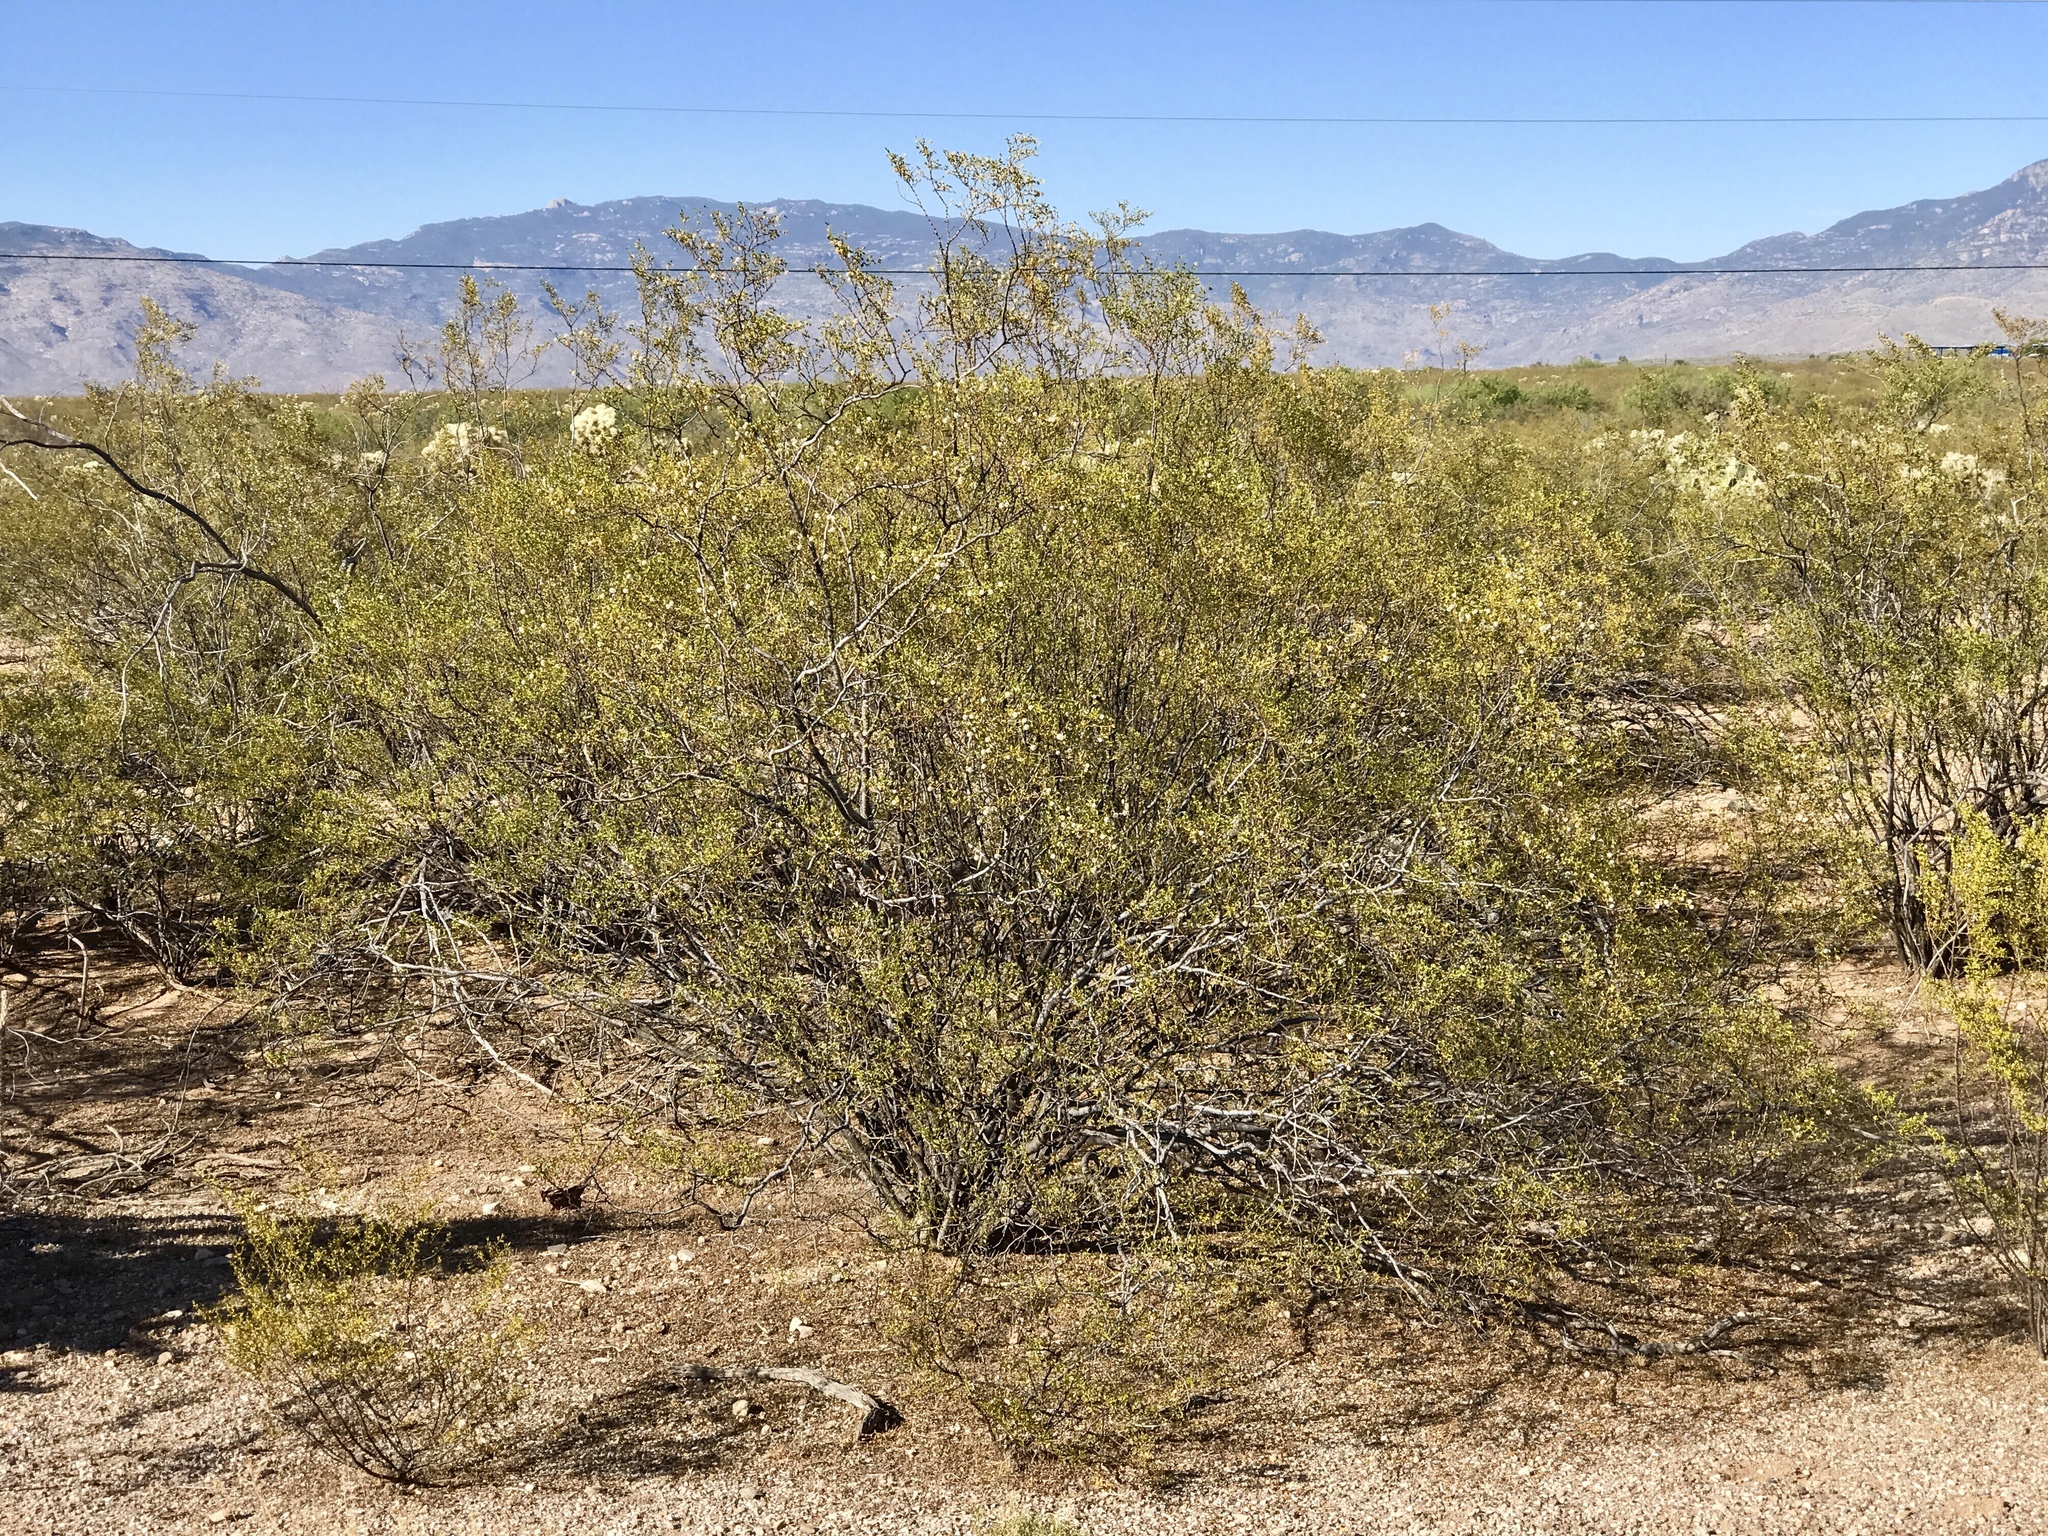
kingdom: Plantae
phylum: Tracheophyta
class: Magnoliopsida
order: Zygophyllales
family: Zygophyllaceae
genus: Larrea
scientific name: Larrea tridentata
